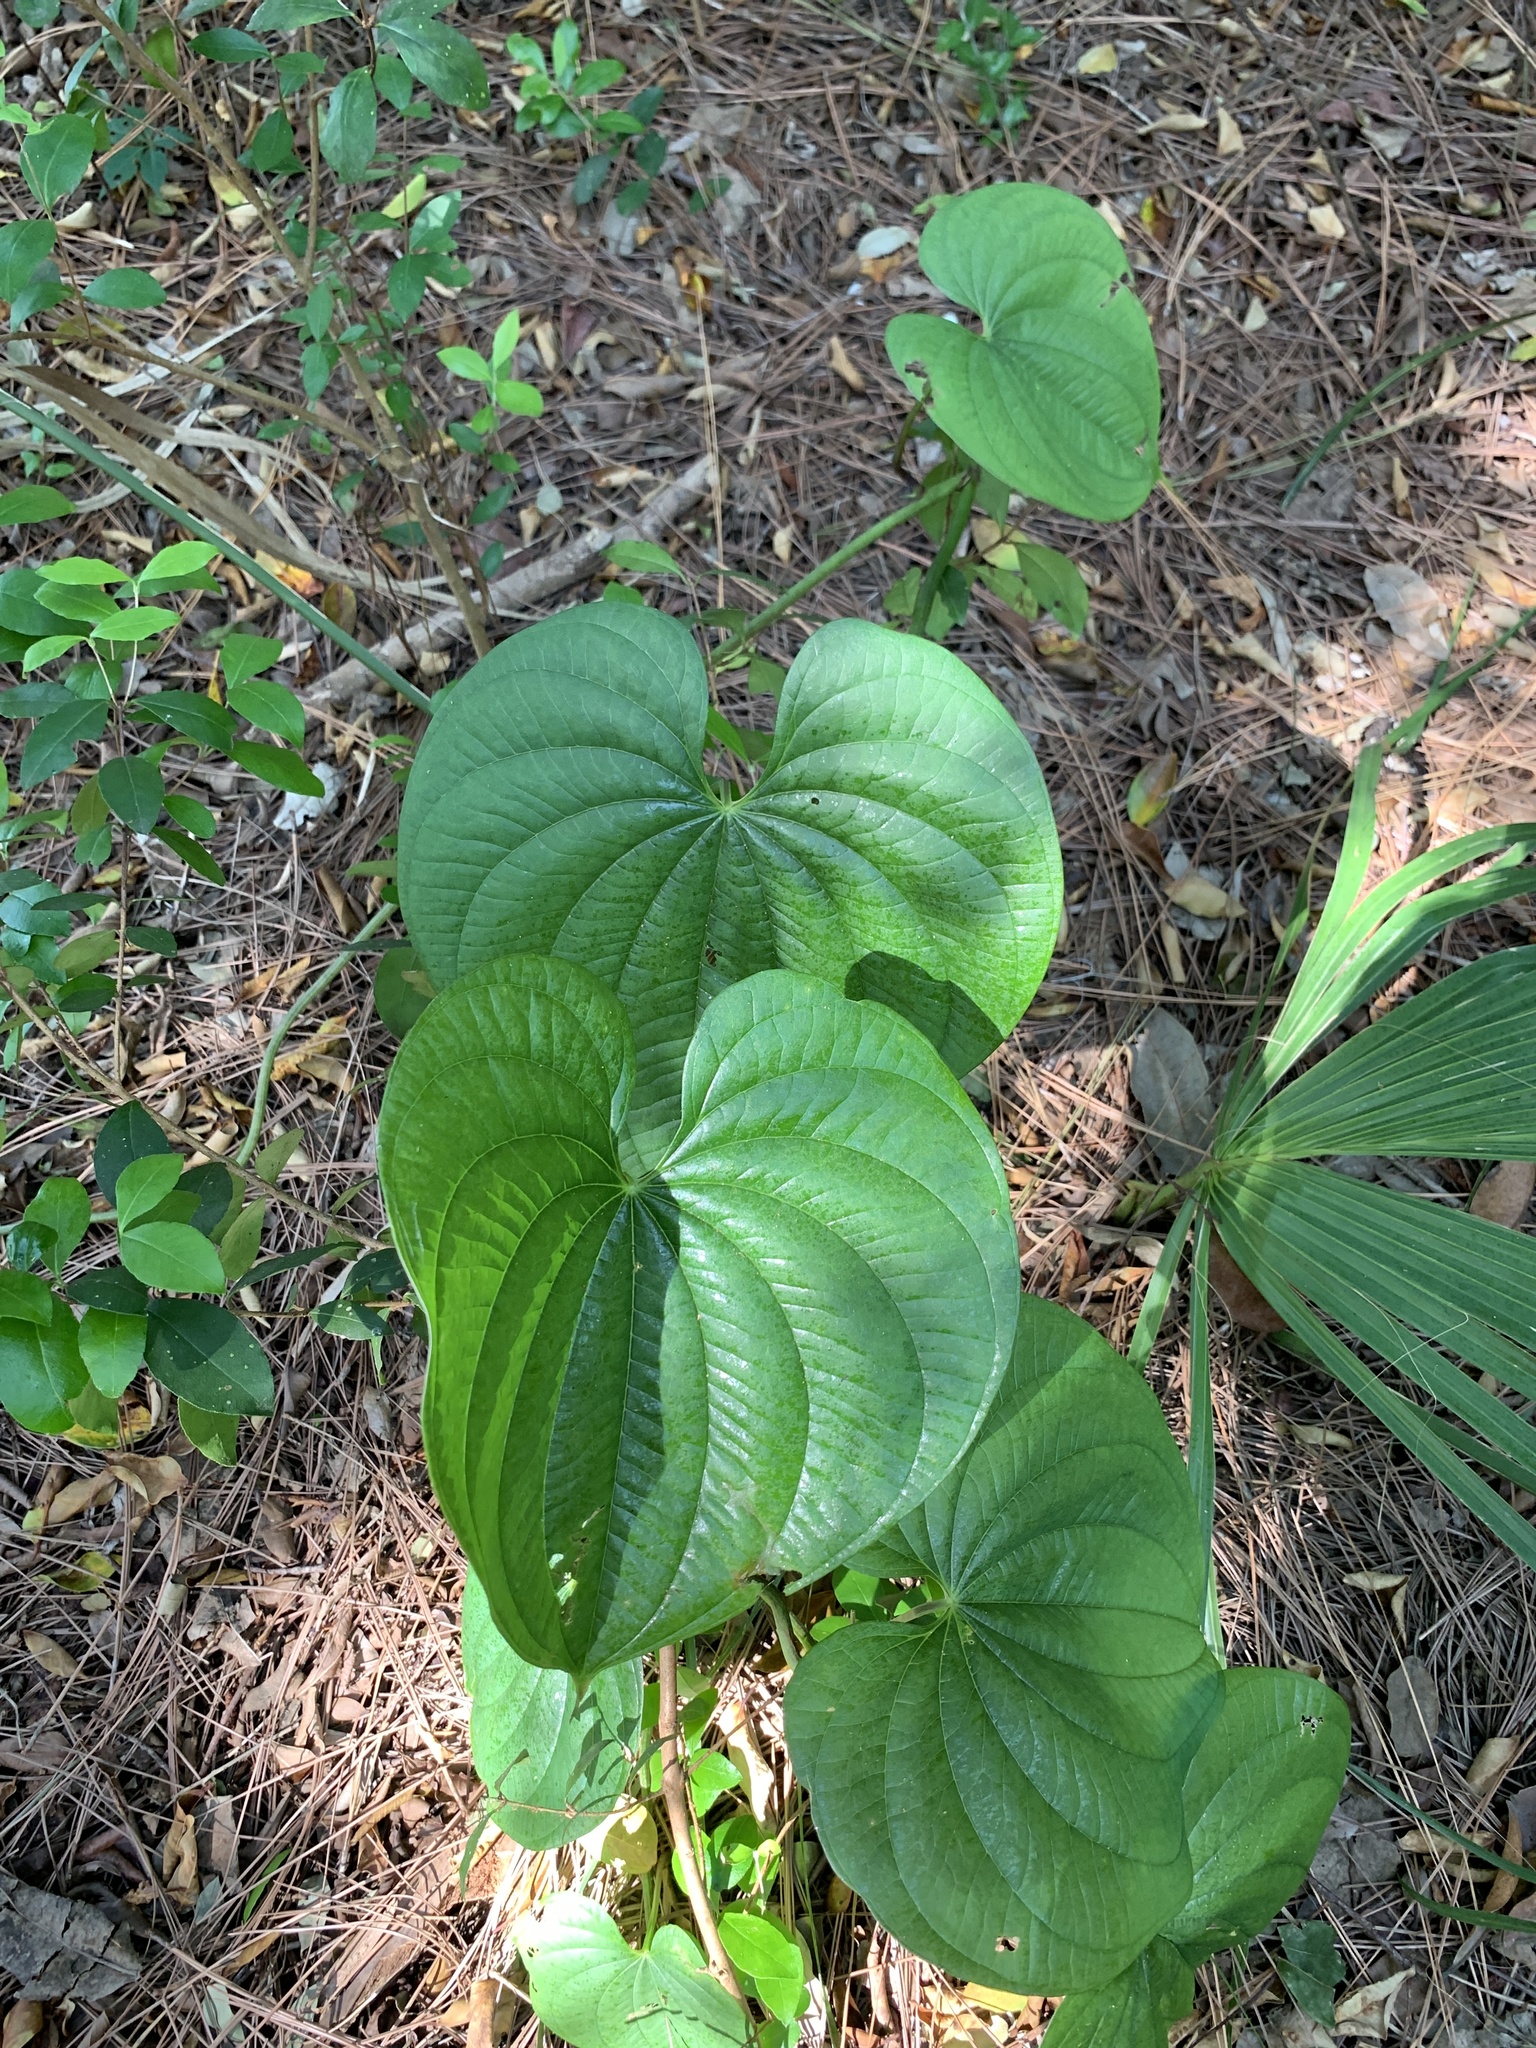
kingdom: Plantae
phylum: Tracheophyta
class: Liliopsida
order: Dioscoreales
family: Dioscoreaceae
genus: Dioscorea
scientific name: Dioscorea bulbifera
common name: Air yam
